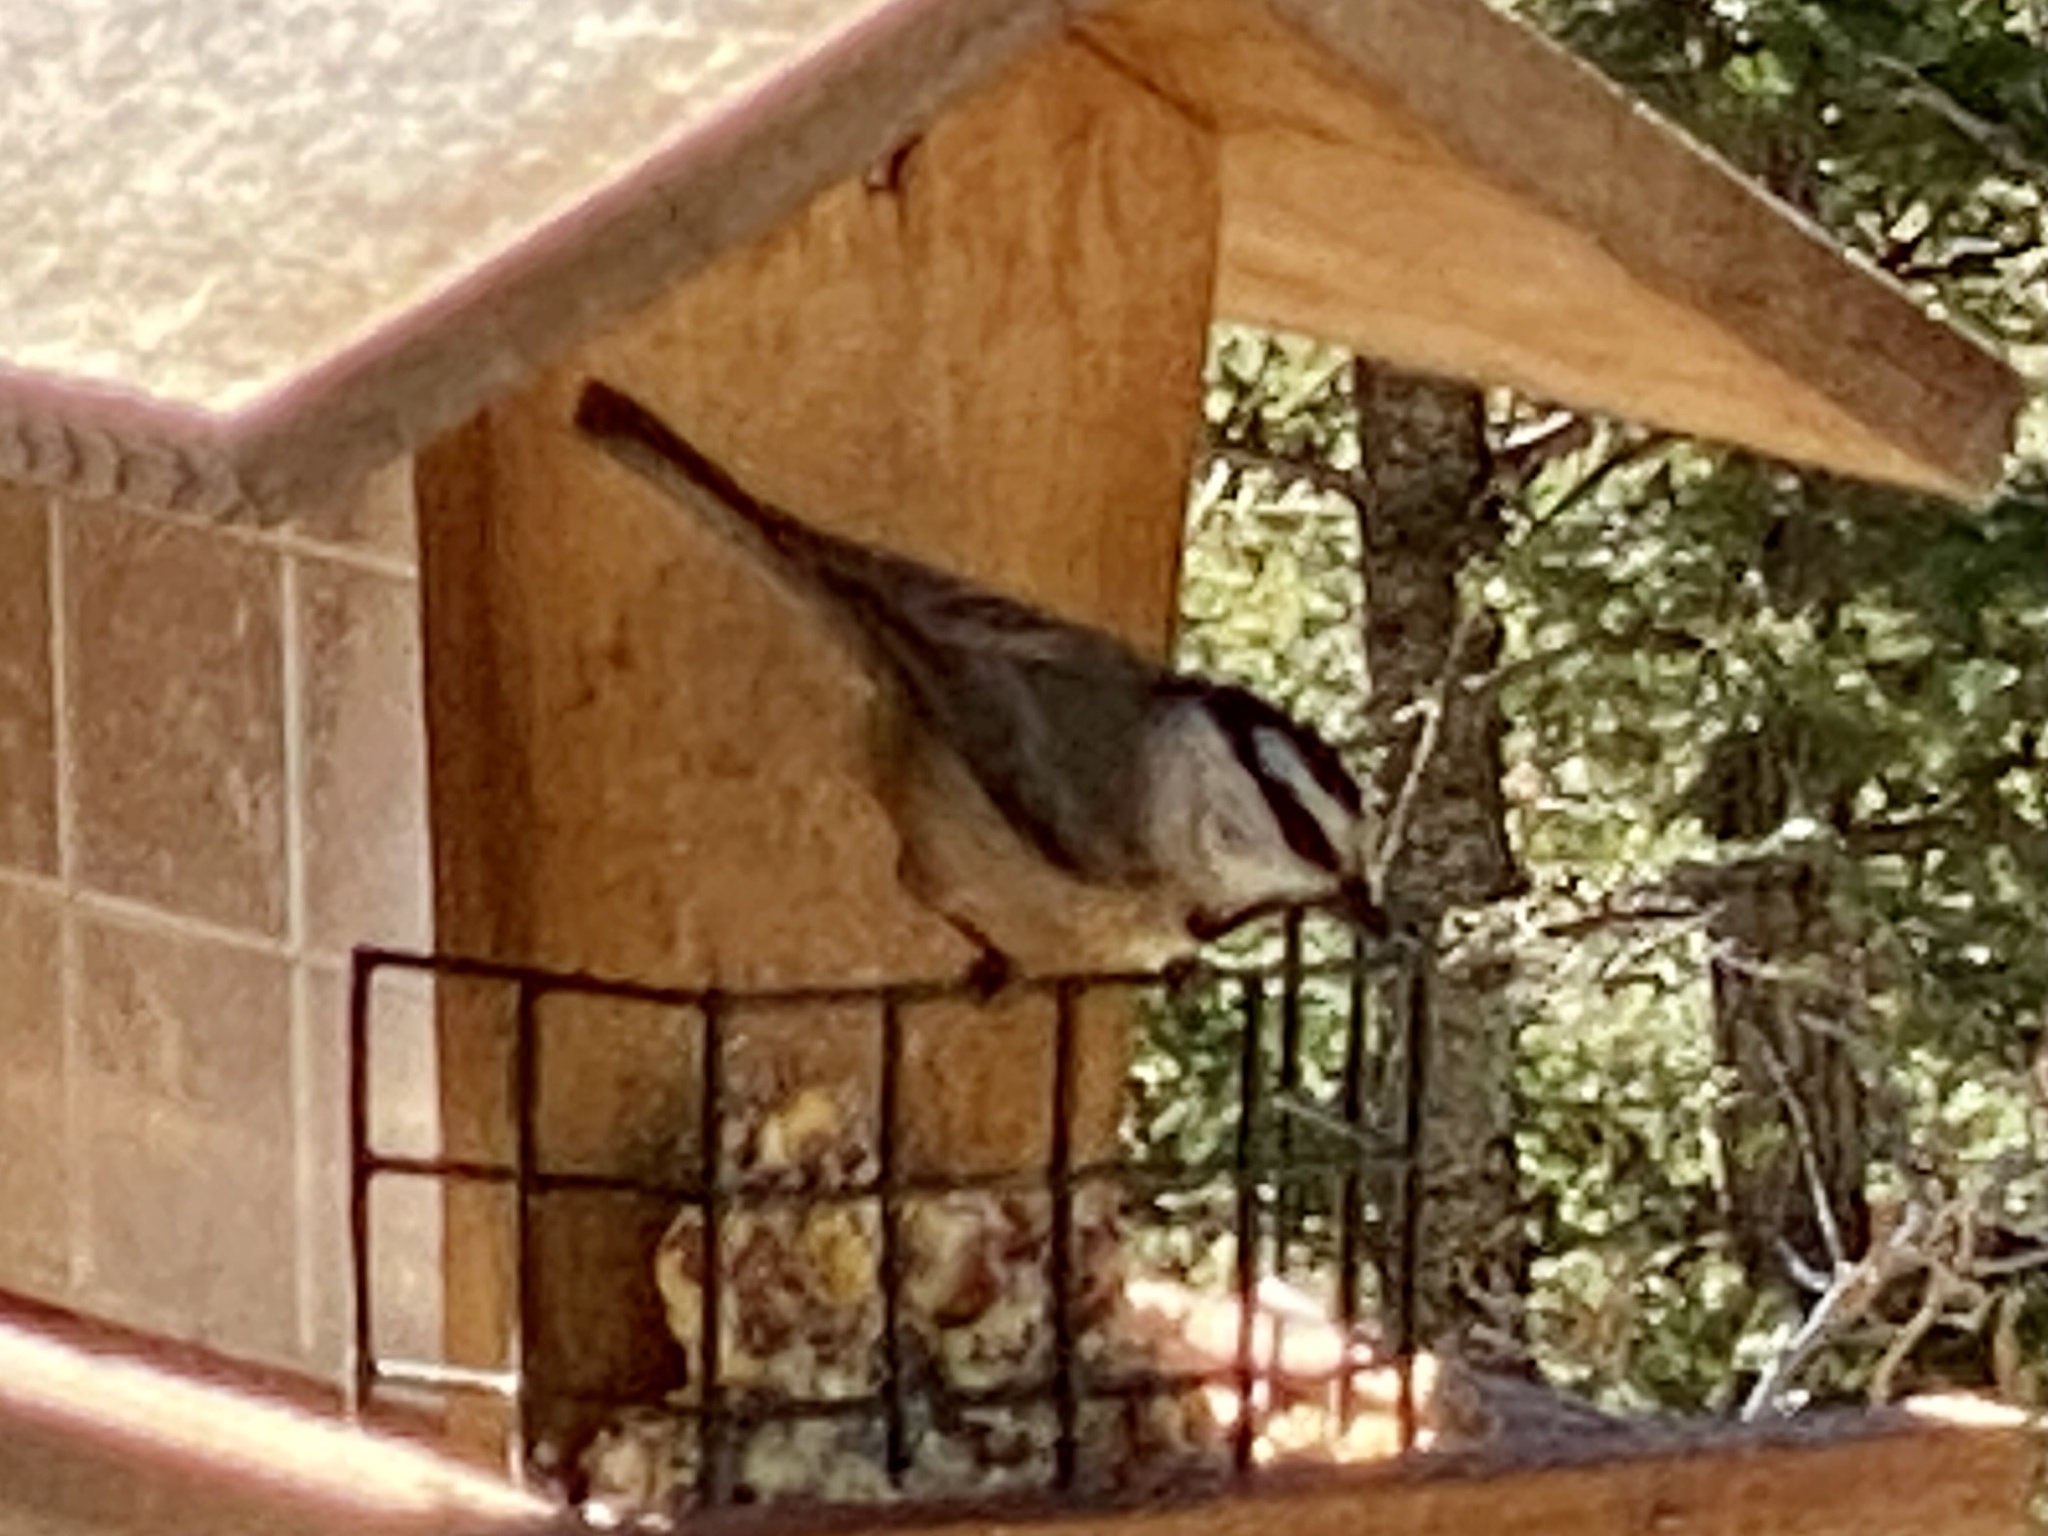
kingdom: Animalia
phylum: Chordata
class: Aves
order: Passeriformes
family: Paridae
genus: Poecile
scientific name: Poecile gambeli
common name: Mountain chickadee
